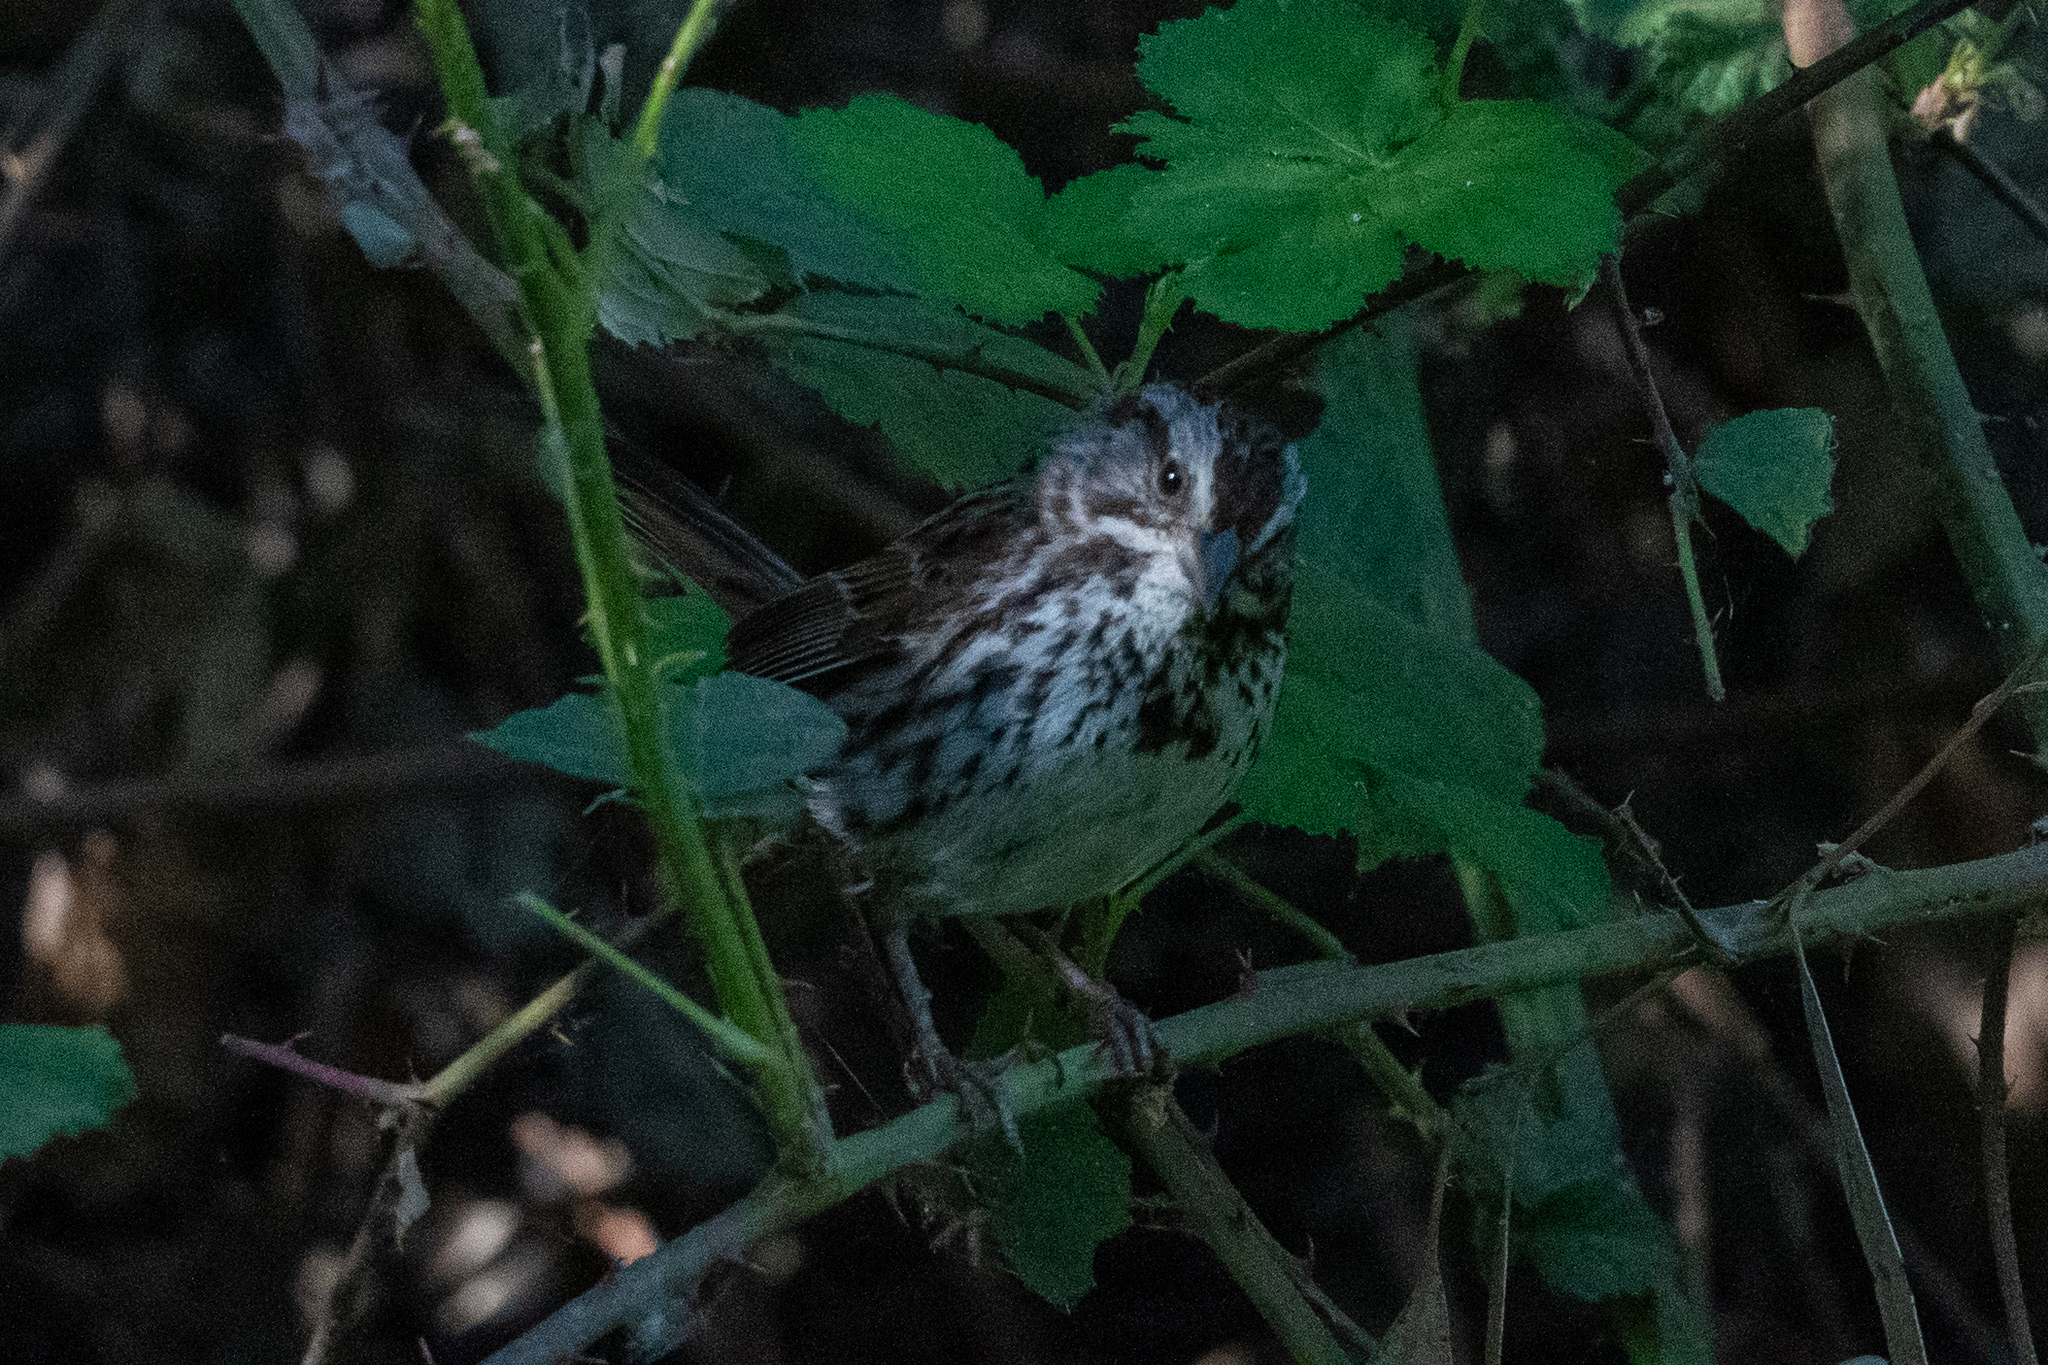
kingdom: Animalia
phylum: Chordata
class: Aves
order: Passeriformes
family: Passerellidae
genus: Melospiza
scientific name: Melospiza melodia
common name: Song sparrow
